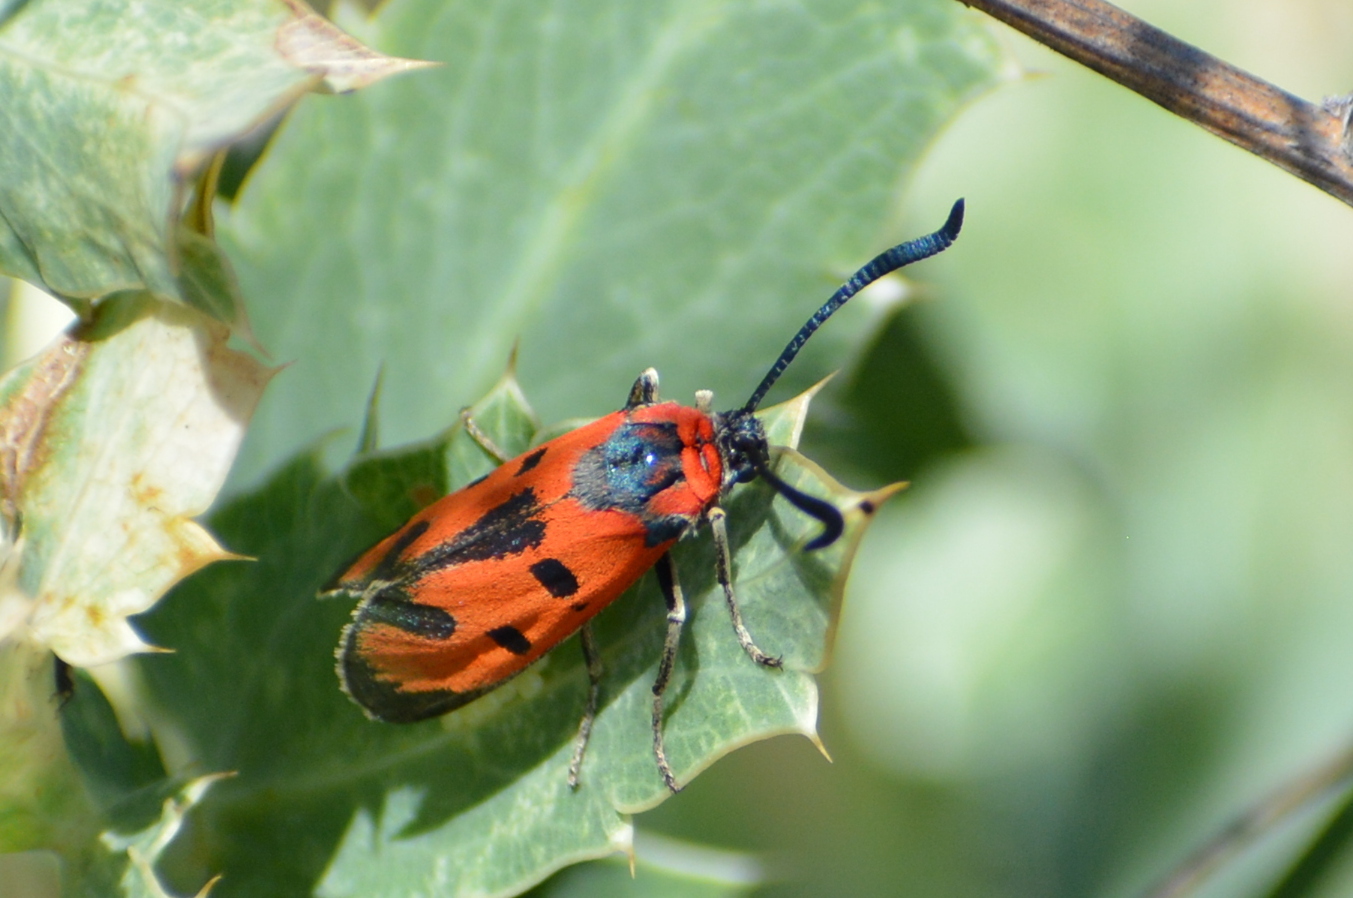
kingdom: Animalia
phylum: Arthropoda
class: Insecta
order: Lepidoptera
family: Zygaenidae
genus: Zygaena
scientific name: Zygaena laeta
